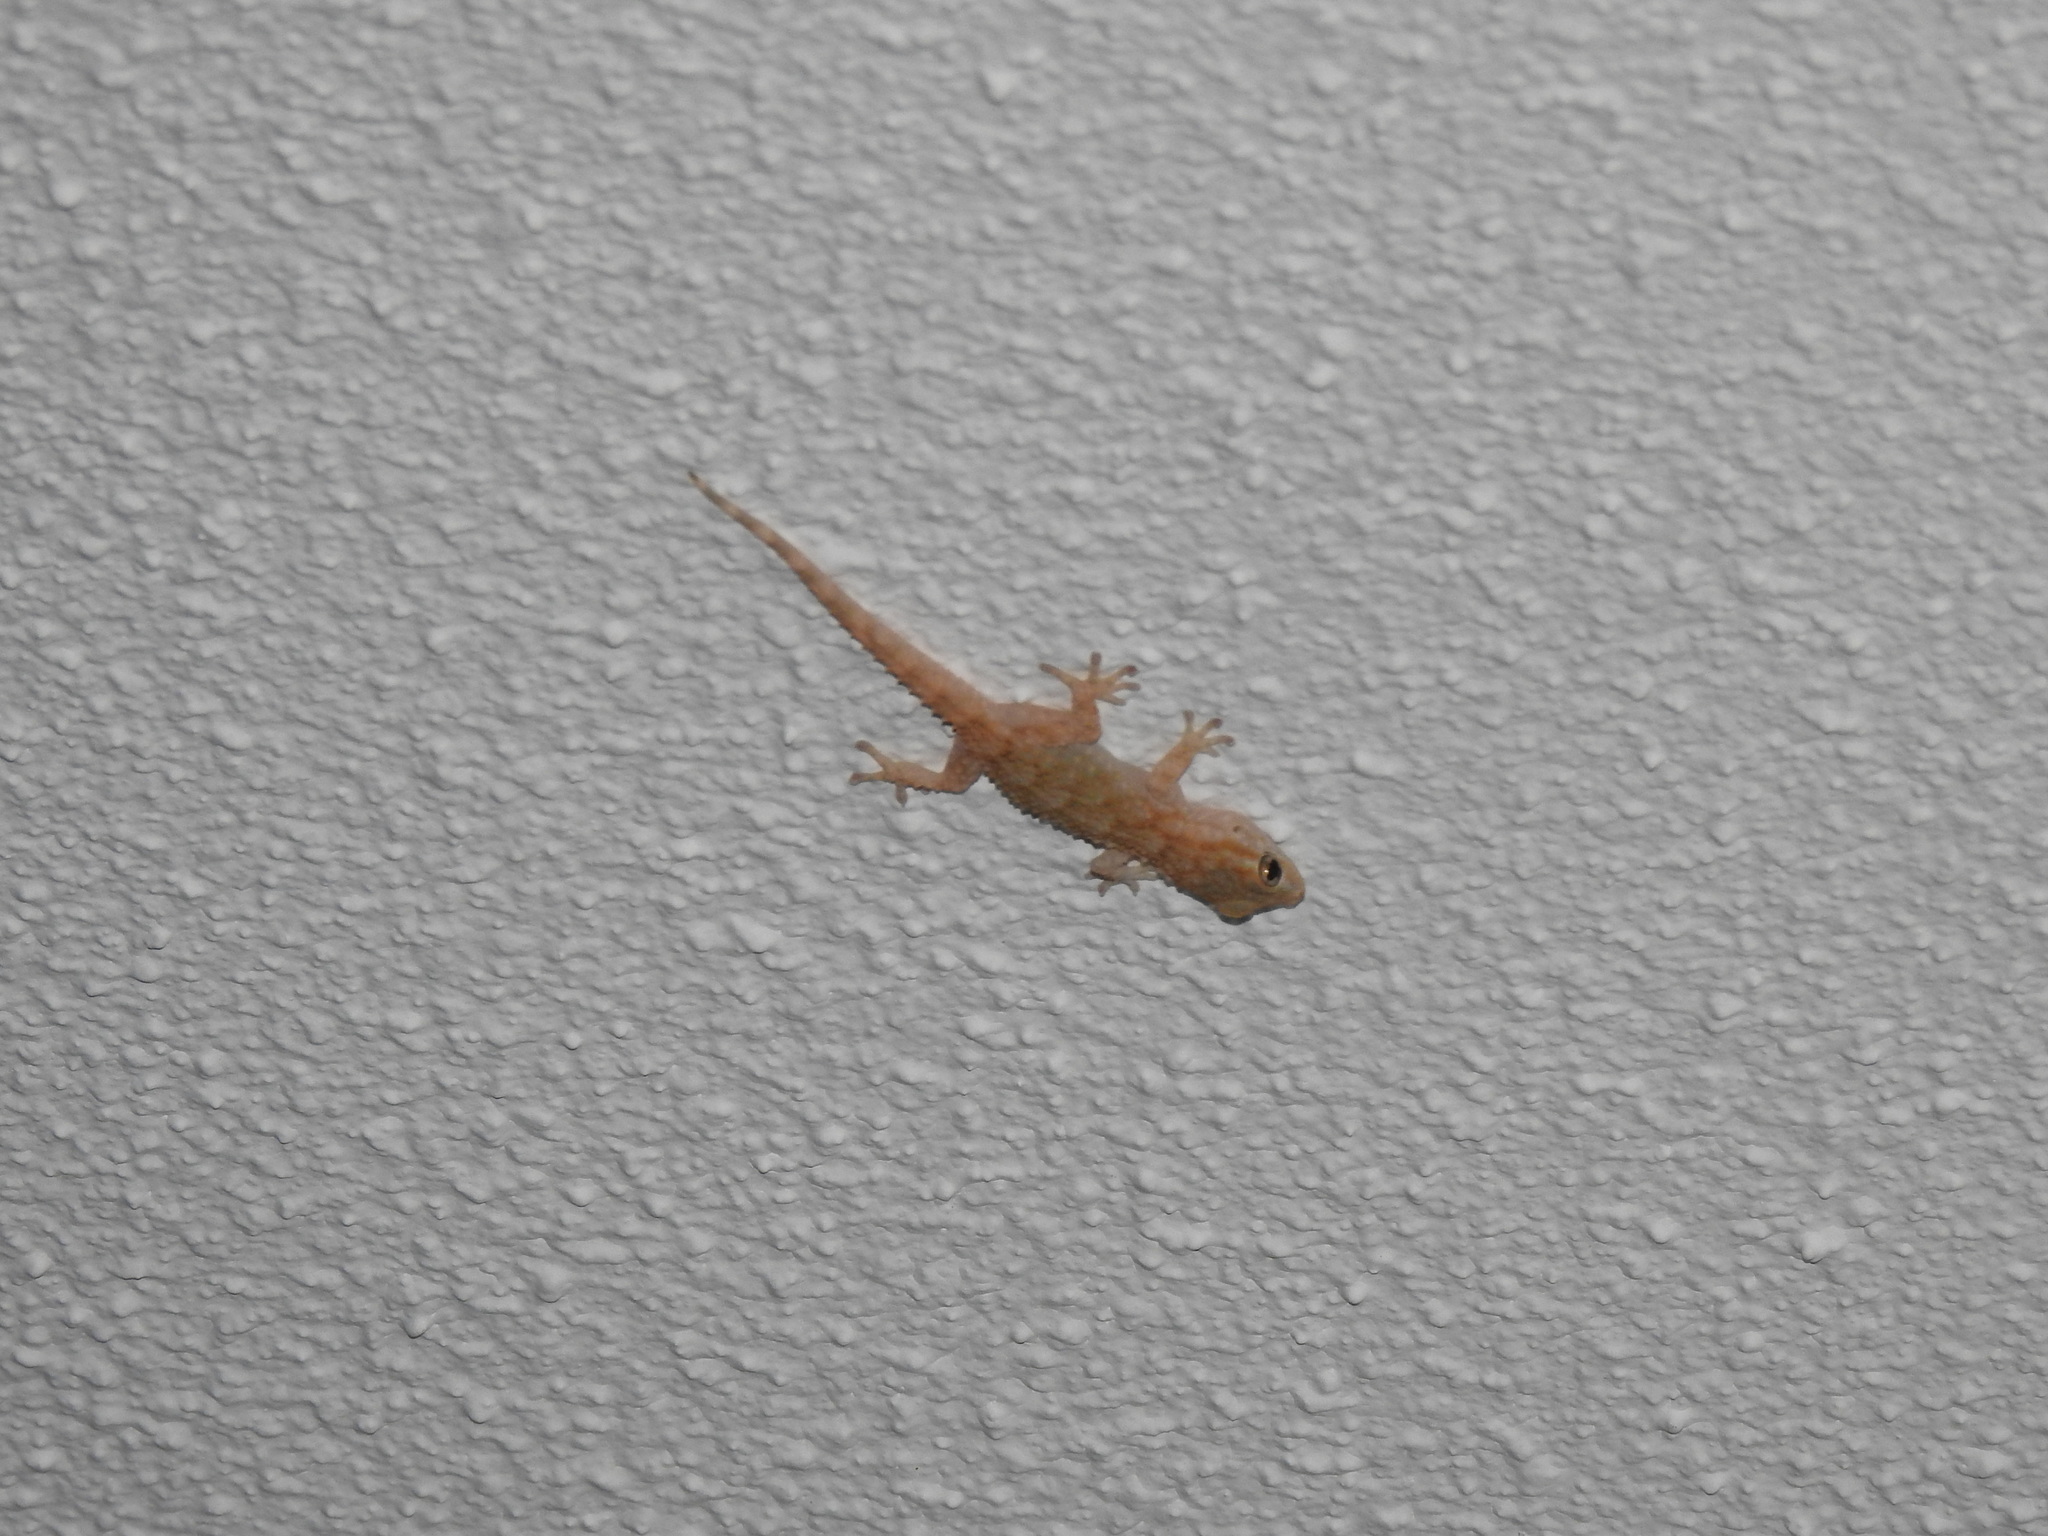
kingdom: Animalia
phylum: Chordata
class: Squamata
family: Phyllodactylidae
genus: Tarentola
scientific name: Tarentola mauritanica
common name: Moorish gecko
